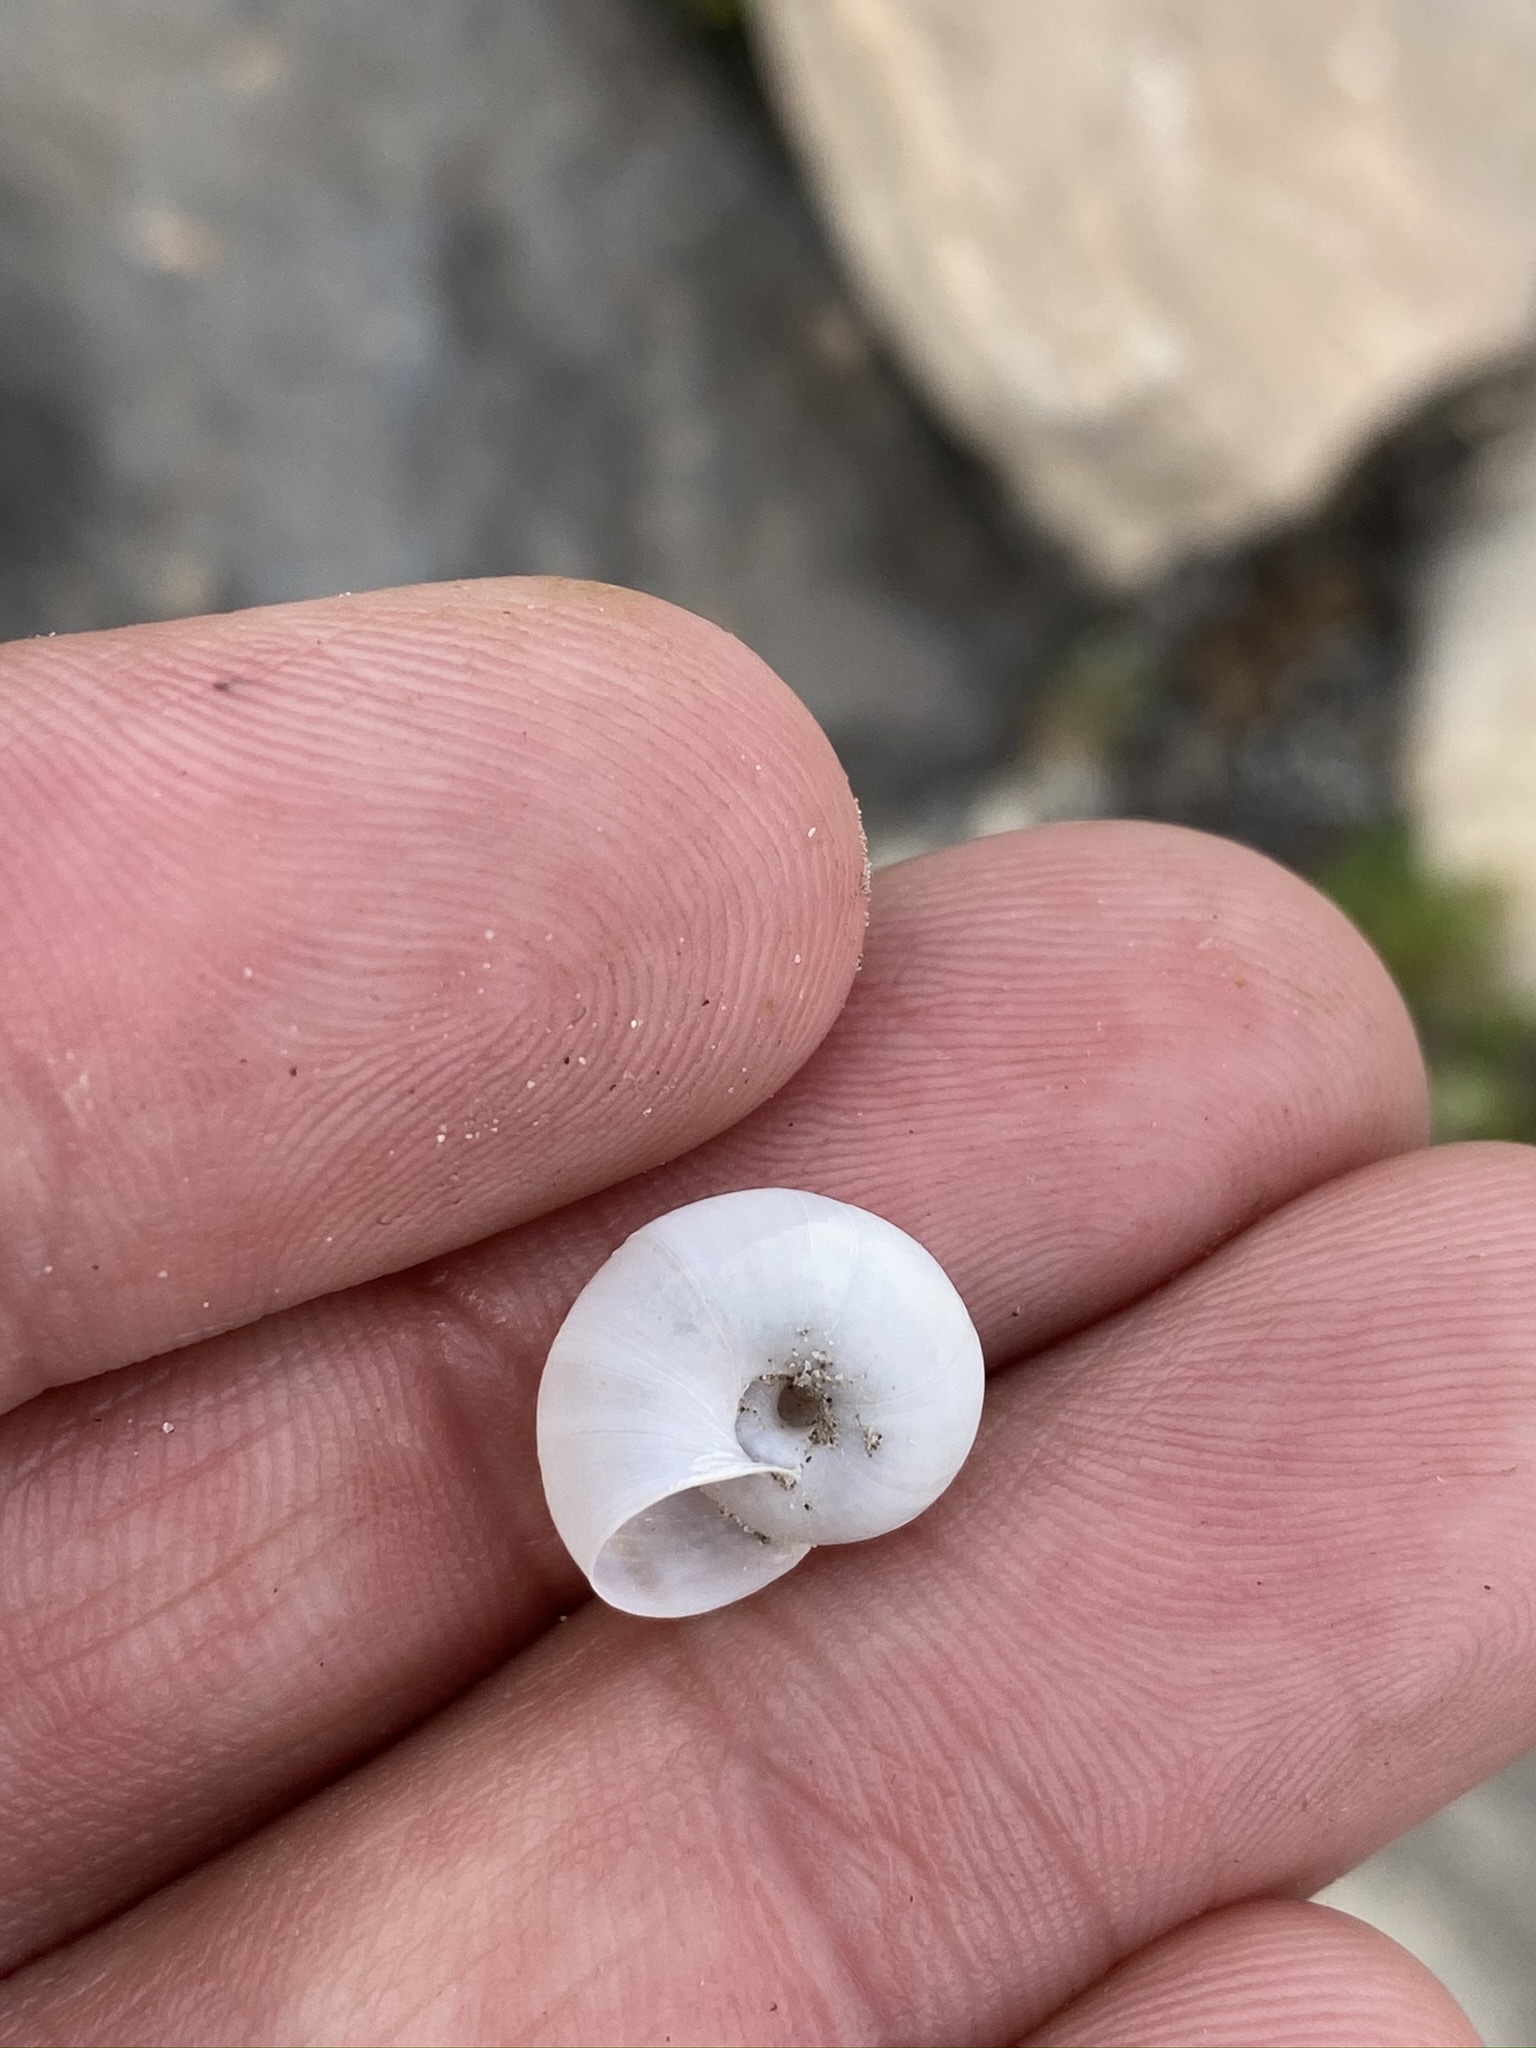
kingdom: Animalia
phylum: Mollusca
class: Gastropoda
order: Stylommatophora
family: Xanthonychidae
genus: Eremarionta
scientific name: Eremarionta argus
